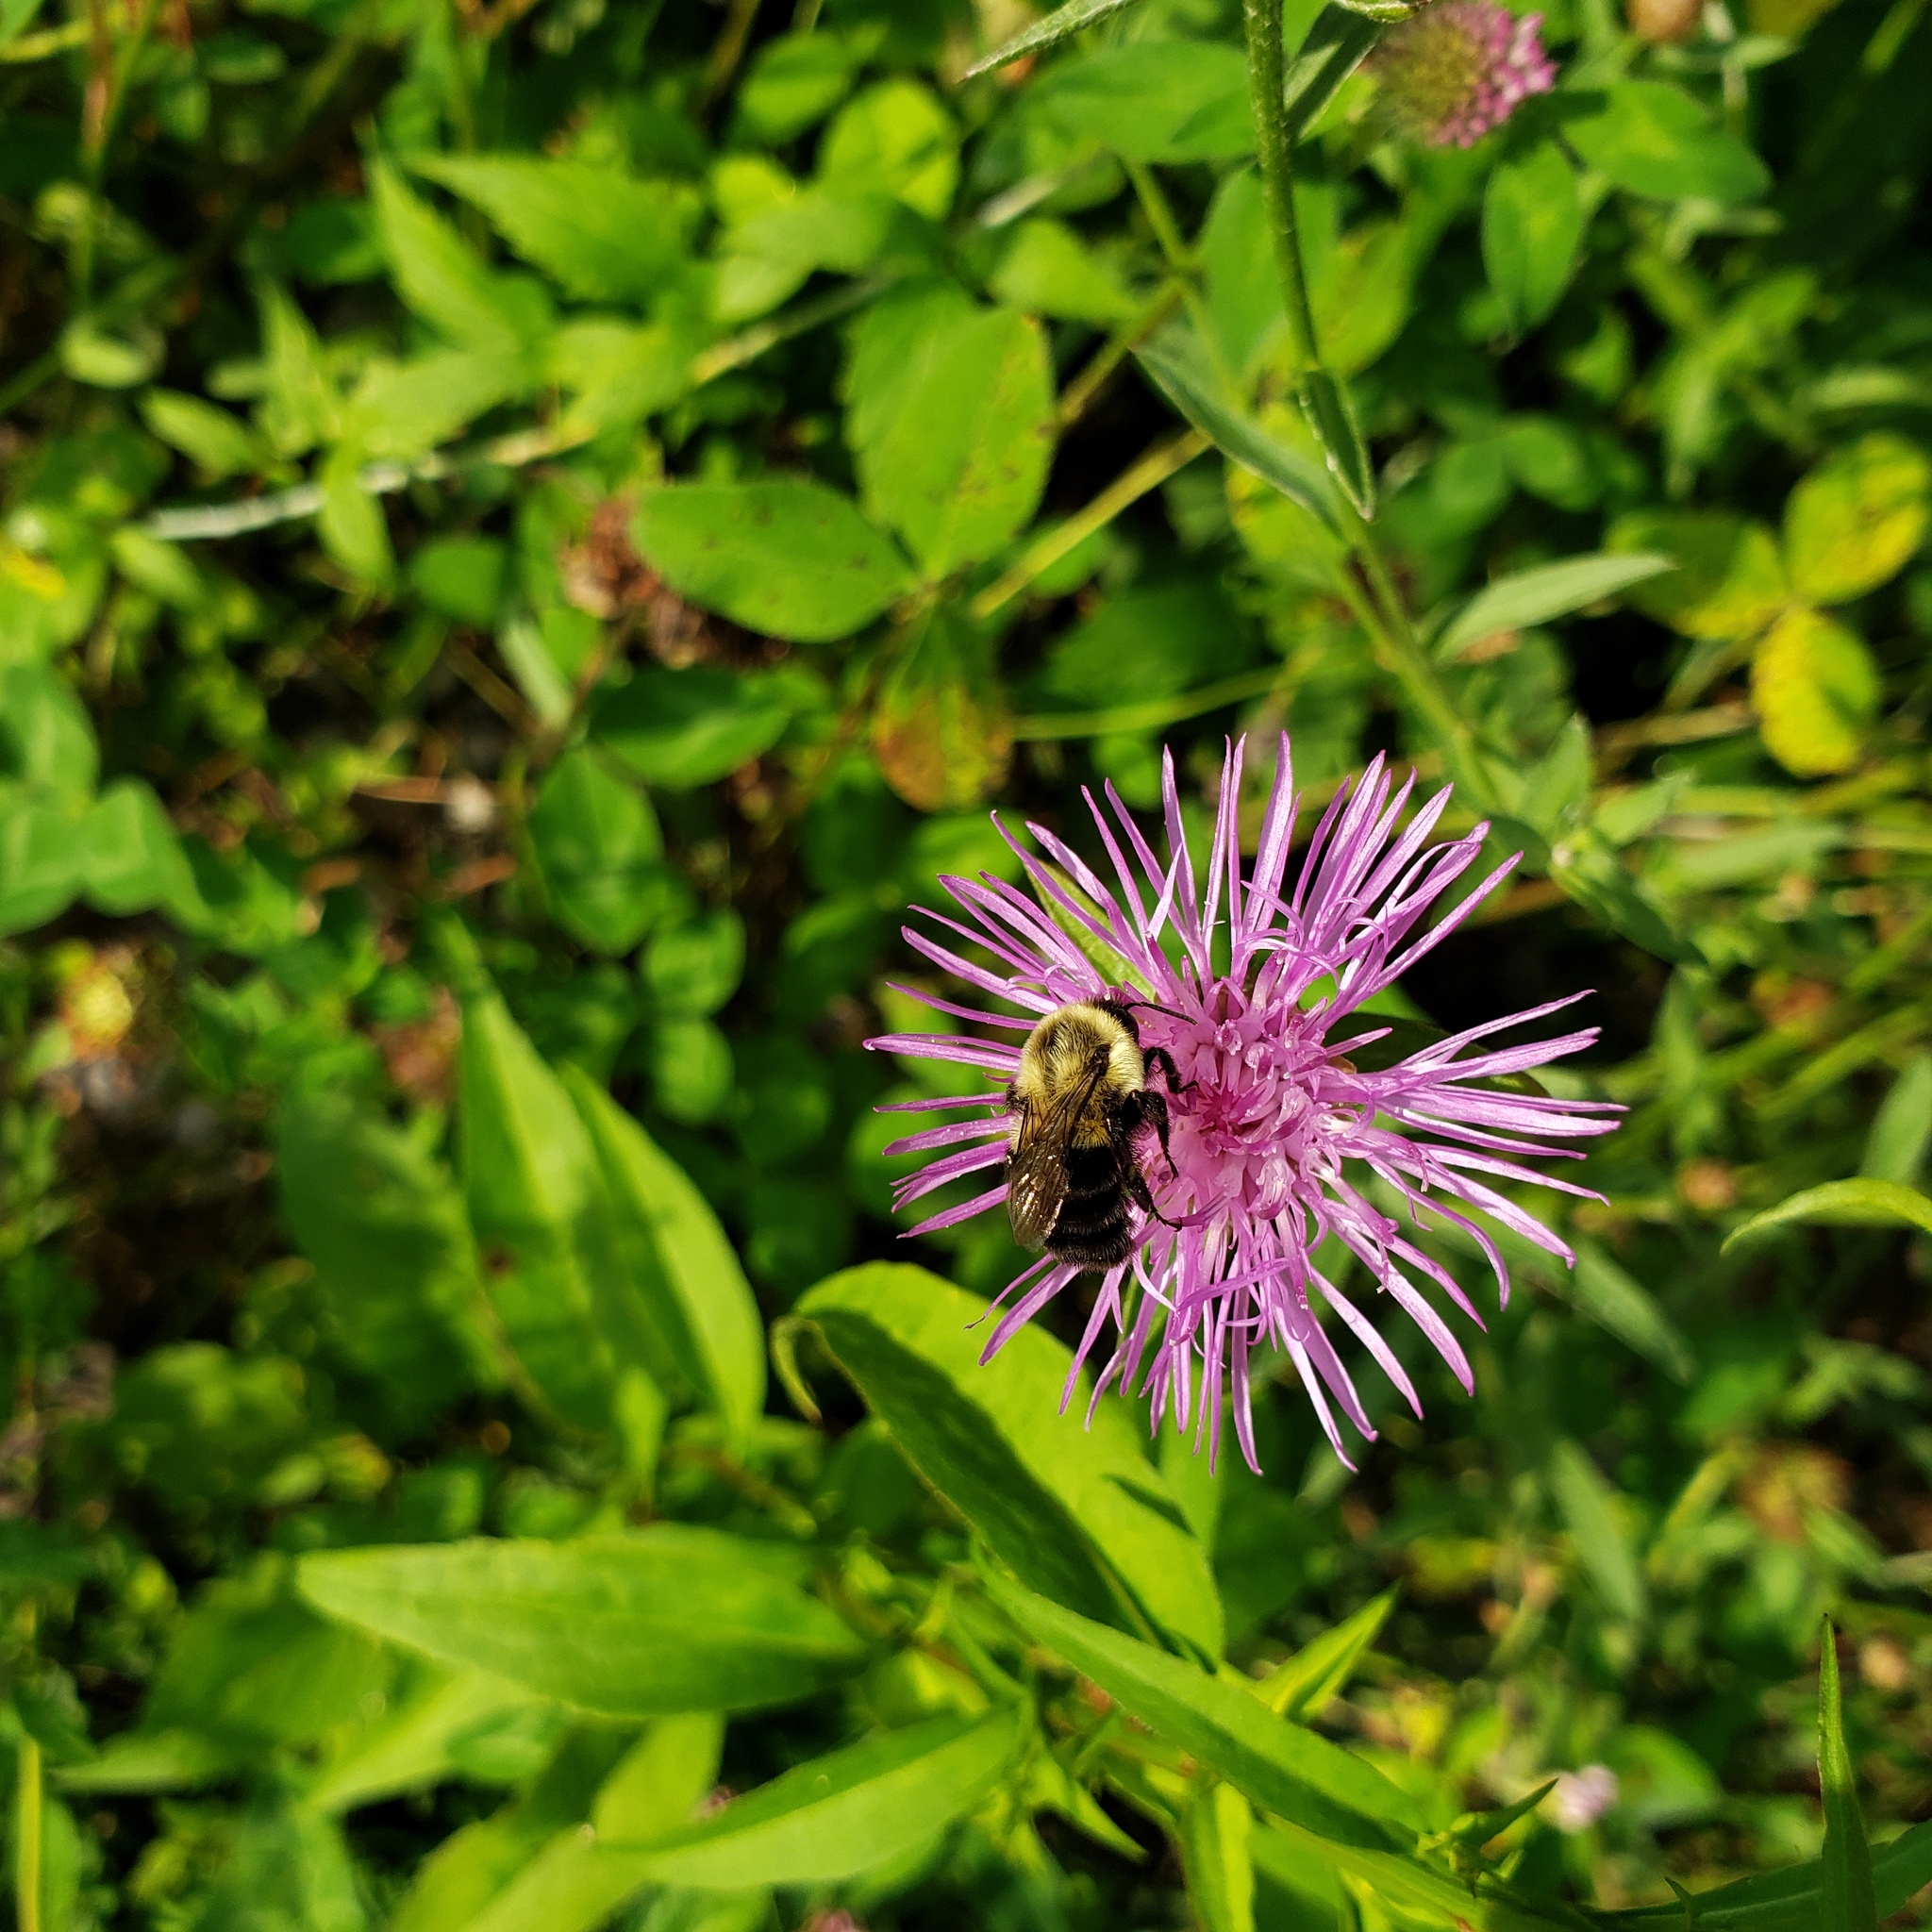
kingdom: Animalia
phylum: Arthropoda
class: Insecta
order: Hymenoptera
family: Apidae
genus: Bombus
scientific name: Bombus impatiens
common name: Common eastern bumble bee
